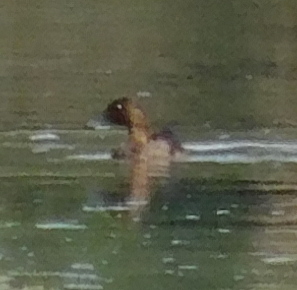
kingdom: Animalia
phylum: Chordata
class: Aves
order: Anseriformes
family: Anatidae
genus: Aythya
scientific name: Aythya fuligula
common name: Tufted duck
